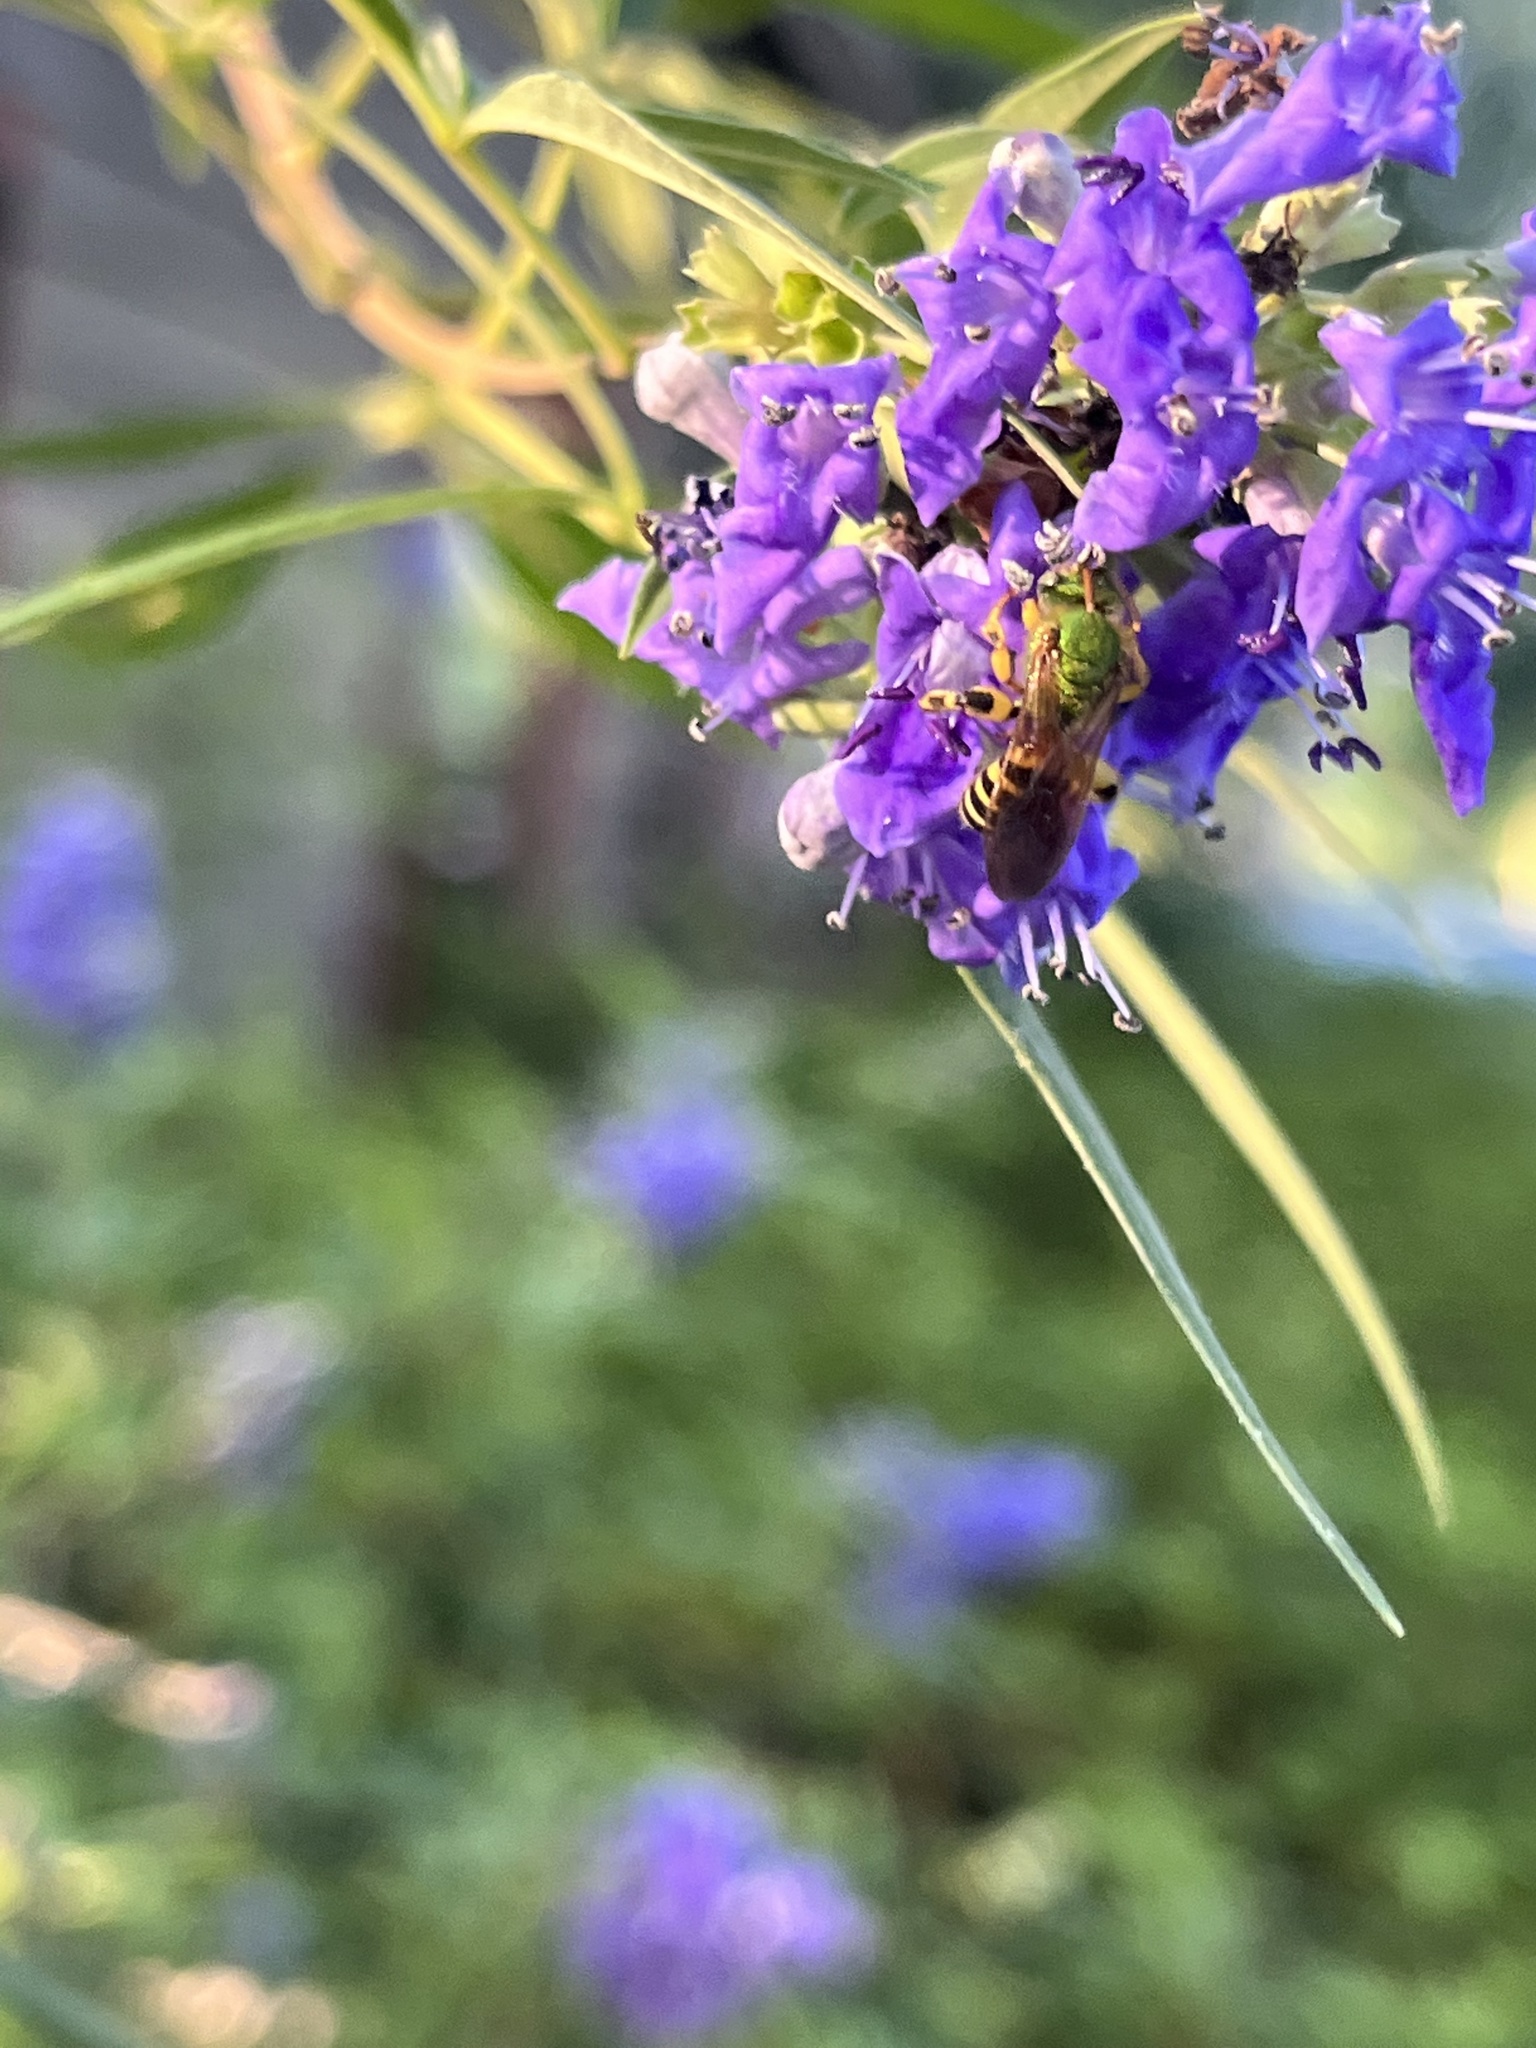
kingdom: Animalia
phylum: Arthropoda
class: Insecta
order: Hymenoptera
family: Halictidae
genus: Agapostemon
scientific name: Agapostemon splendens
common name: Brown-winged striped sweat bee
